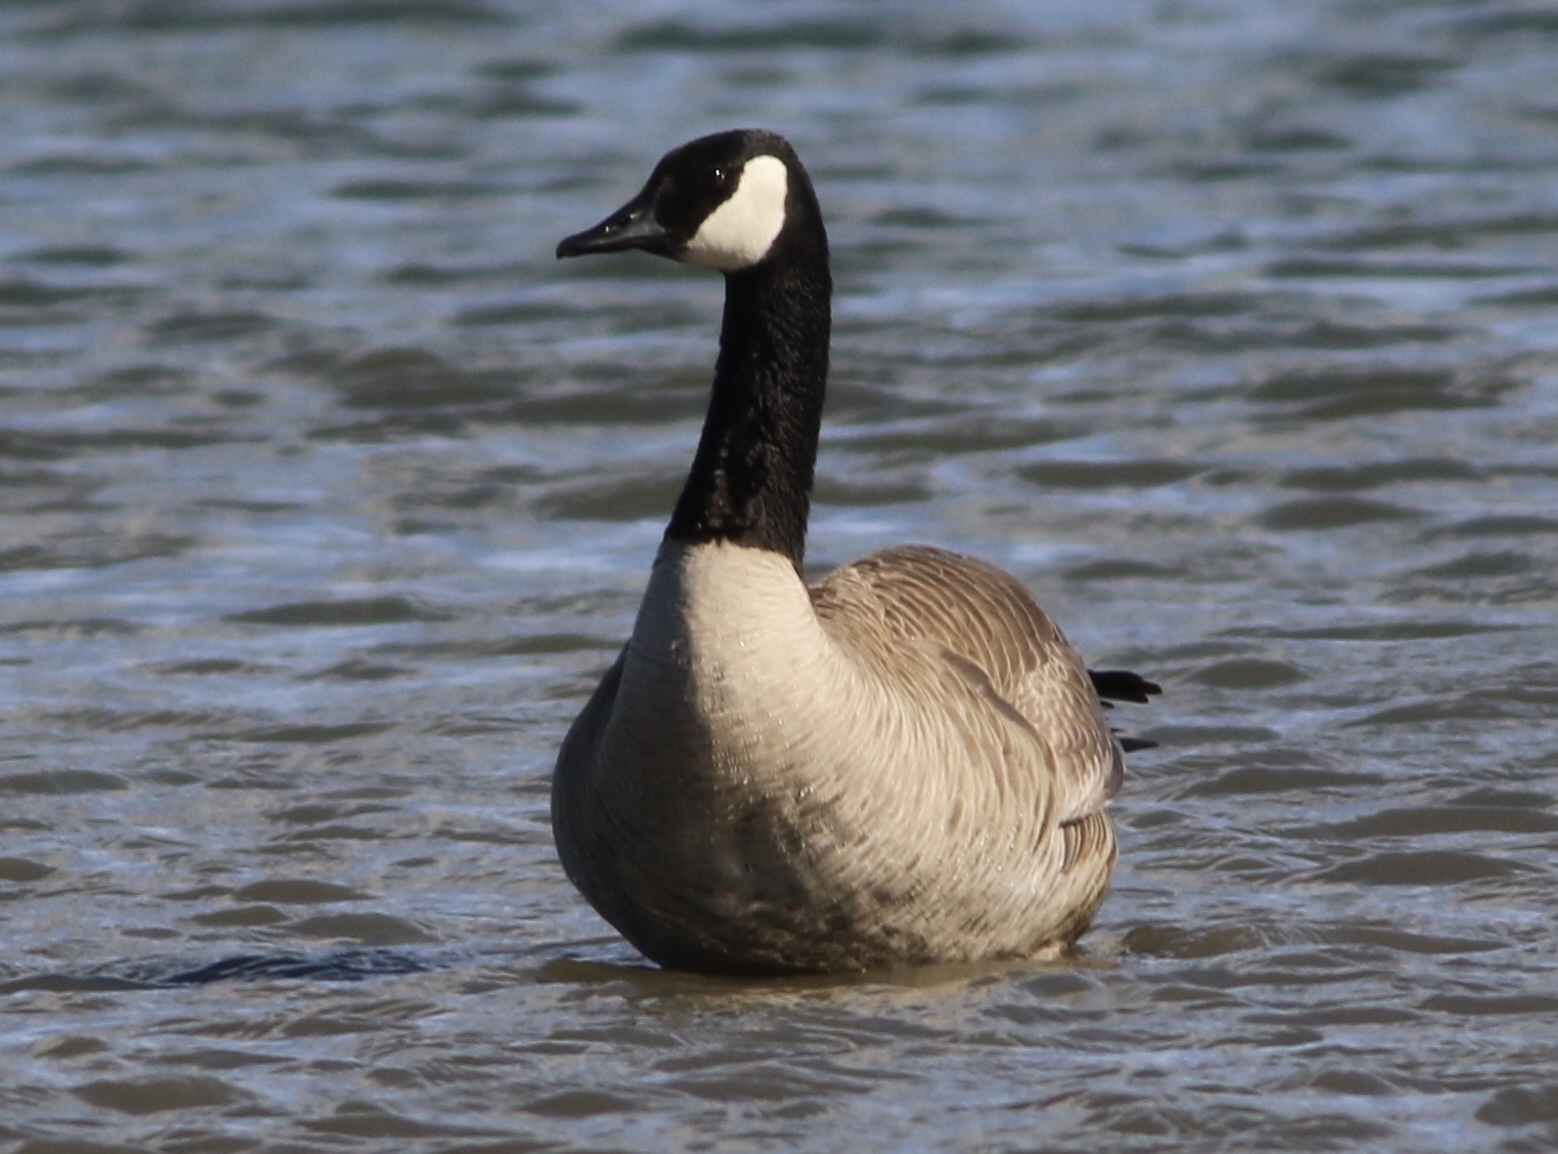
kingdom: Animalia
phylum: Chordata
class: Aves
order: Anseriformes
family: Anatidae
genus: Branta
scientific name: Branta canadensis
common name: Canada goose
